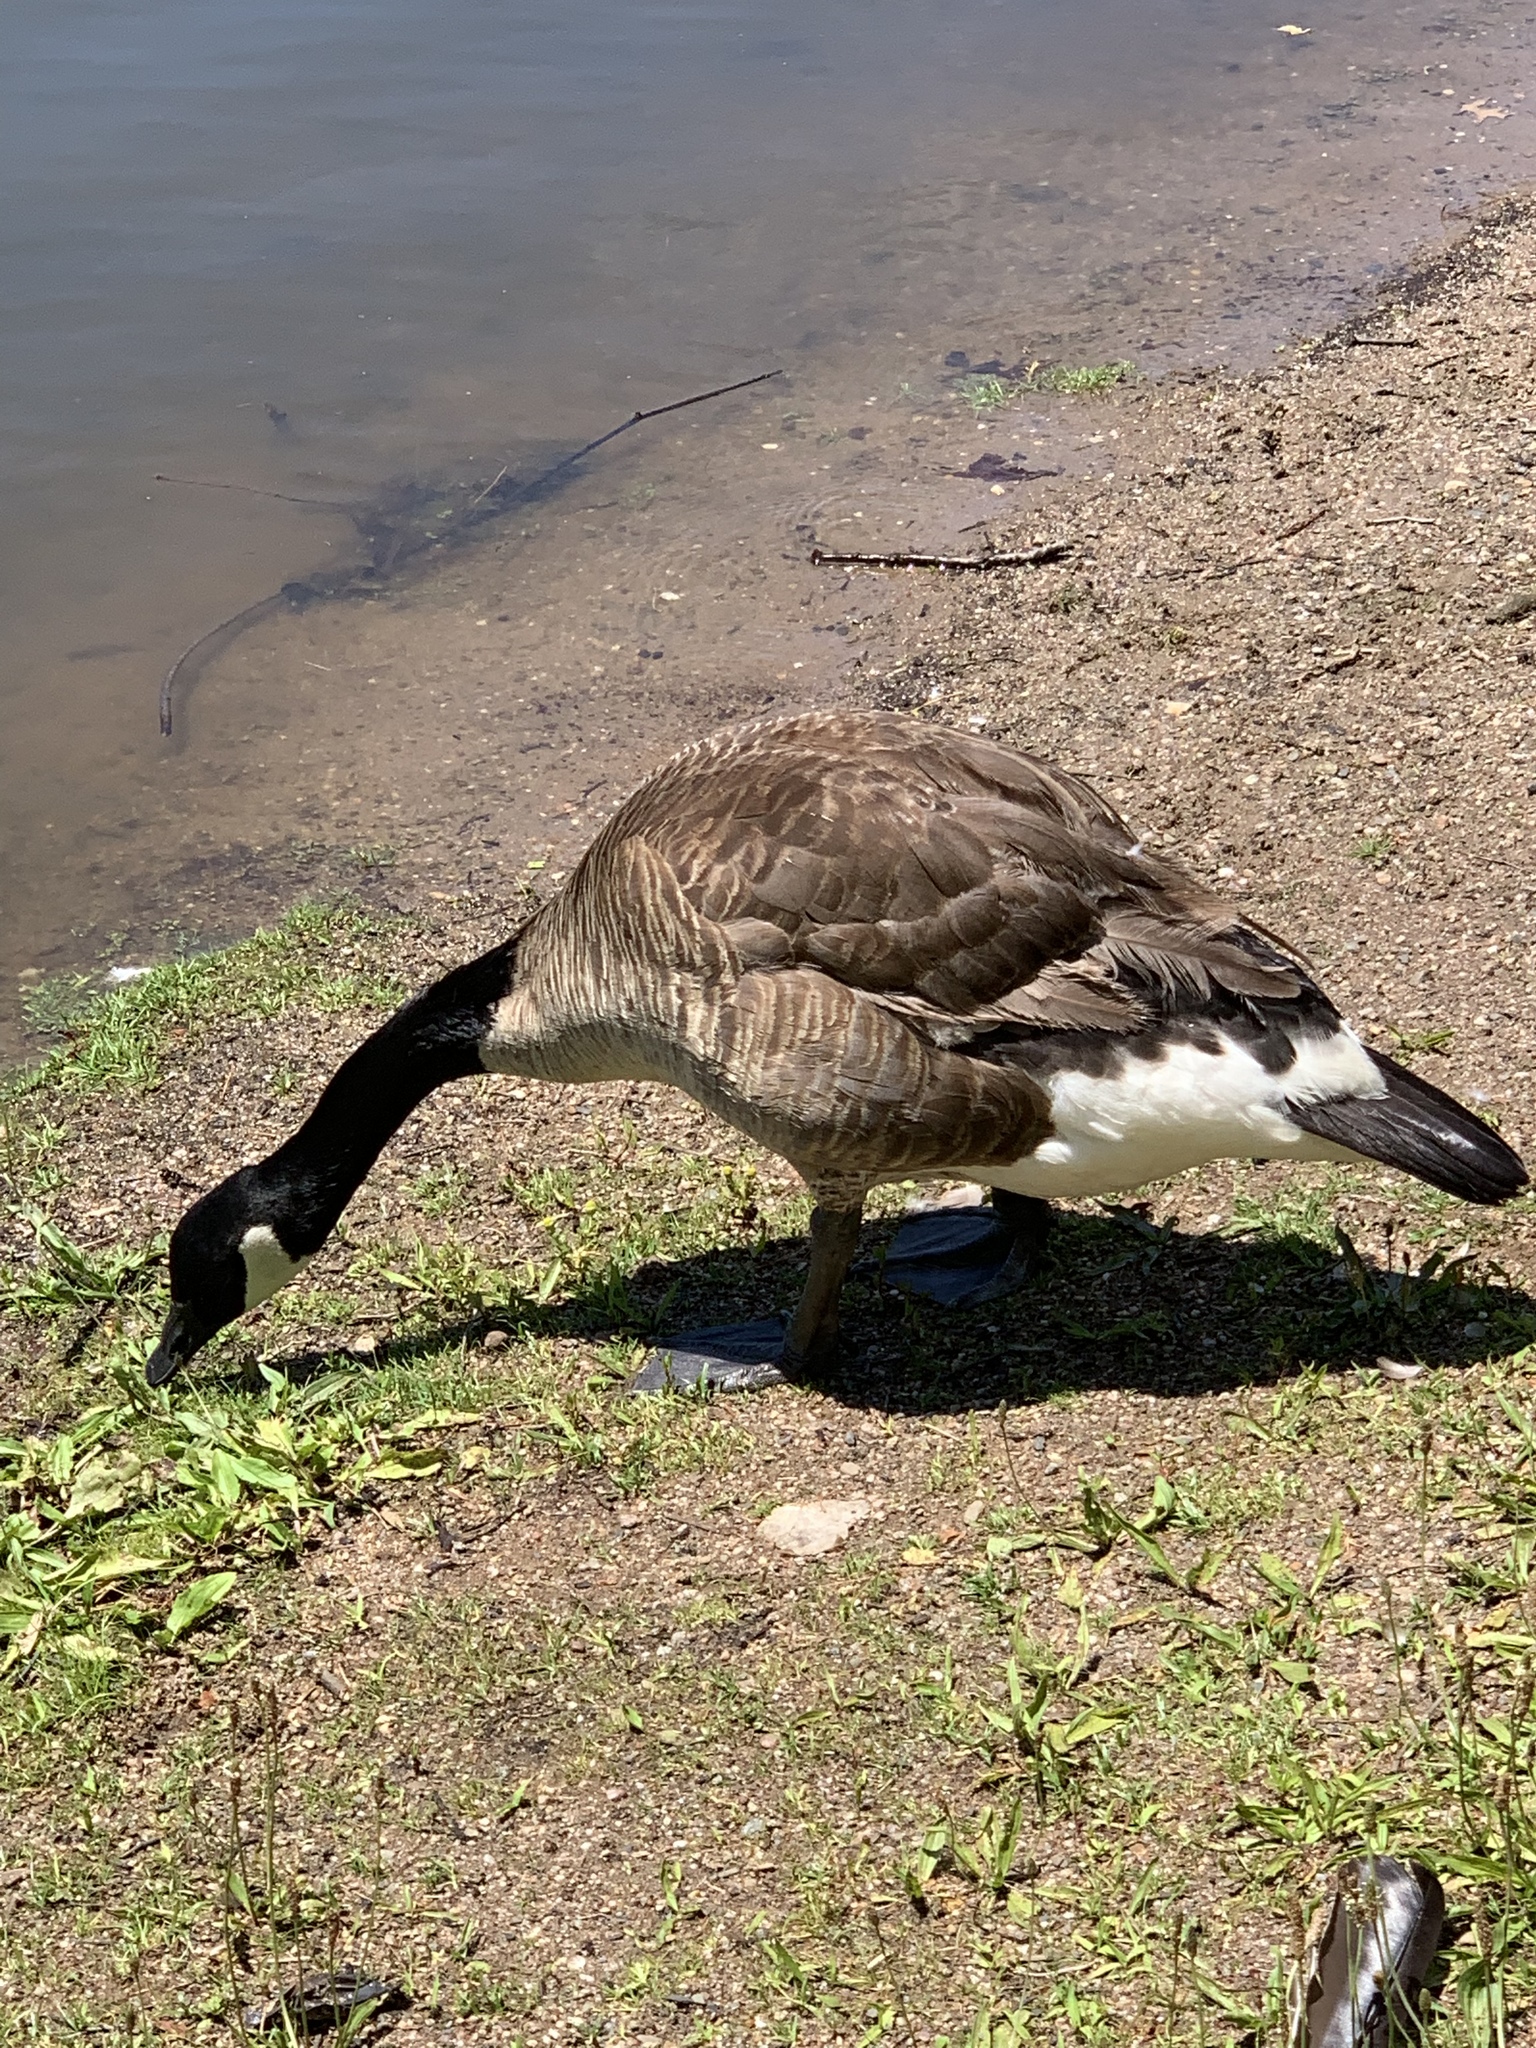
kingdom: Animalia
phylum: Chordata
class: Aves
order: Anseriformes
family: Anatidae
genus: Branta
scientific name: Branta canadensis
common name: Canada goose
